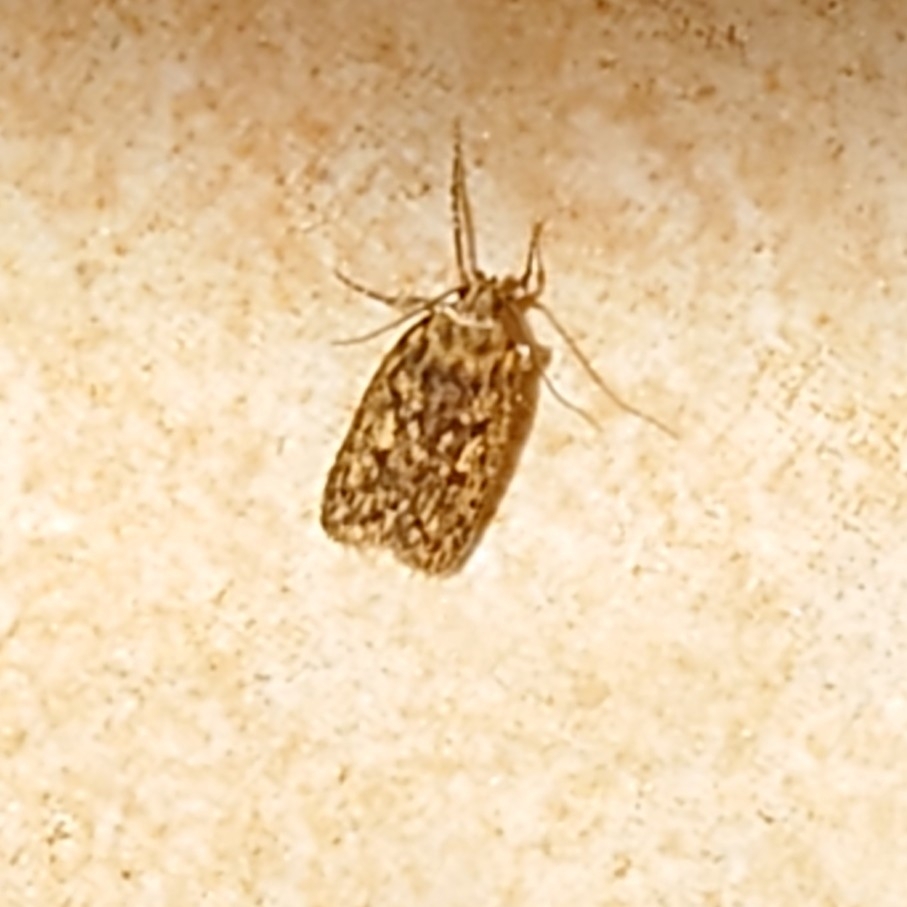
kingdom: Animalia
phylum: Arthropoda
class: Insecta
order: Lepidoptera
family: Oecophoridae
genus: Hofmannophila
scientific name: Hofmannophila pseudospretella
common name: Brown house moth
